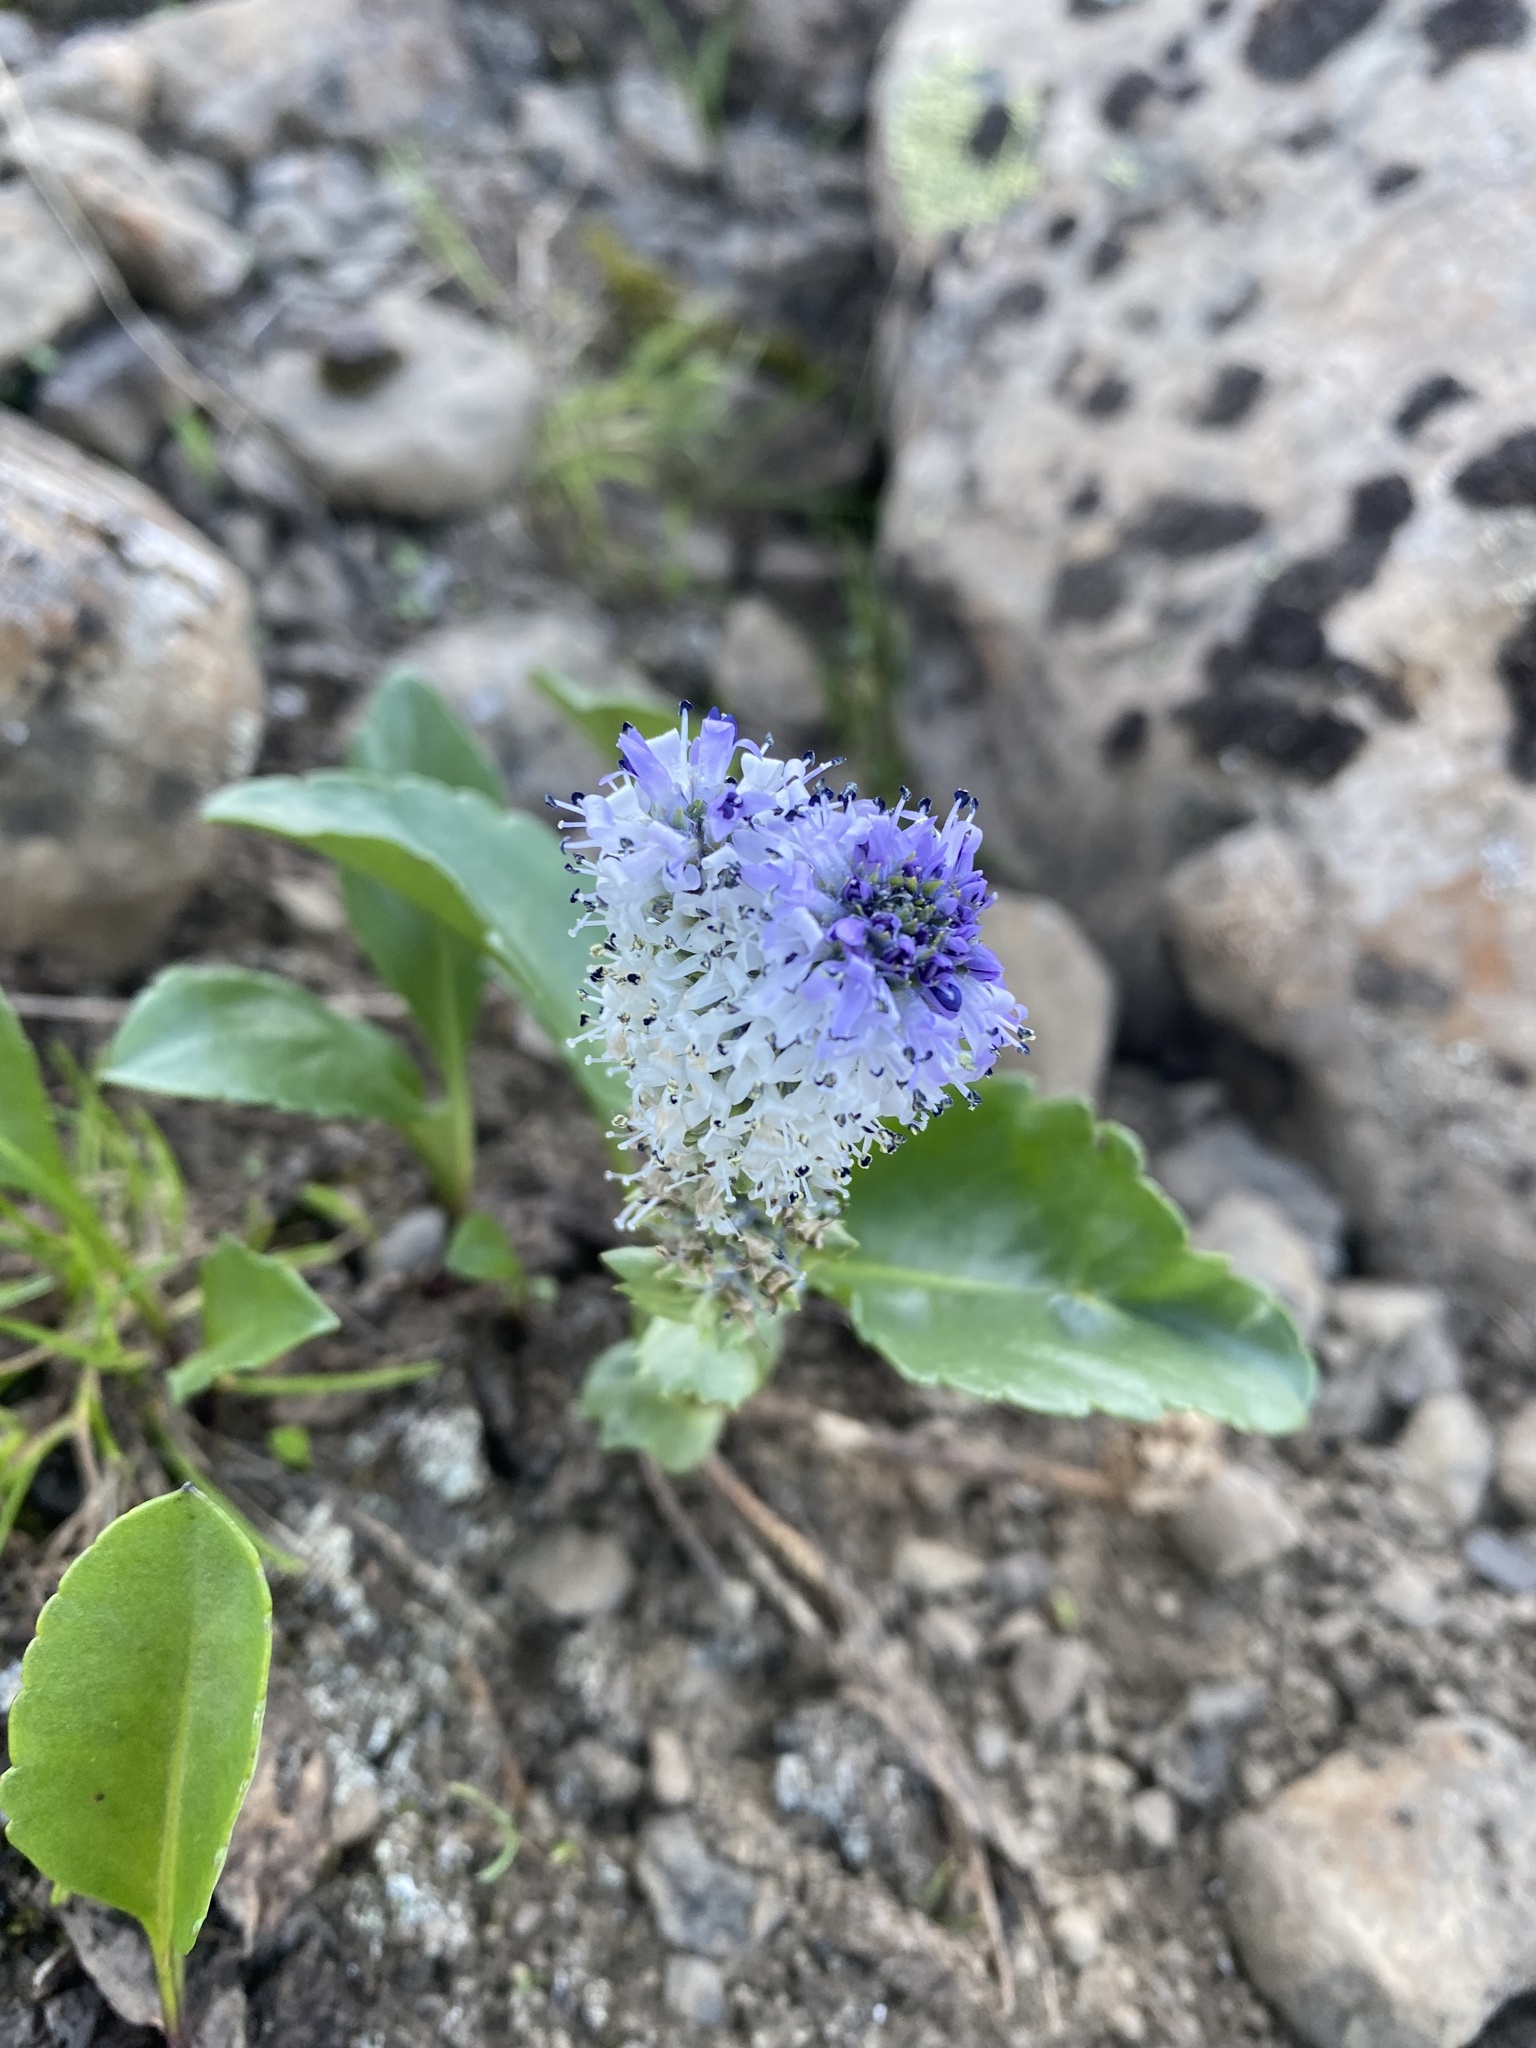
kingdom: Plantae
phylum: Tracheophyta
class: Magnoliopsida
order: Lamiales
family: Plantaginaceae
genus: Lagotis
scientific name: Lagotis glauca
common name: Glaucous weaselsnout
